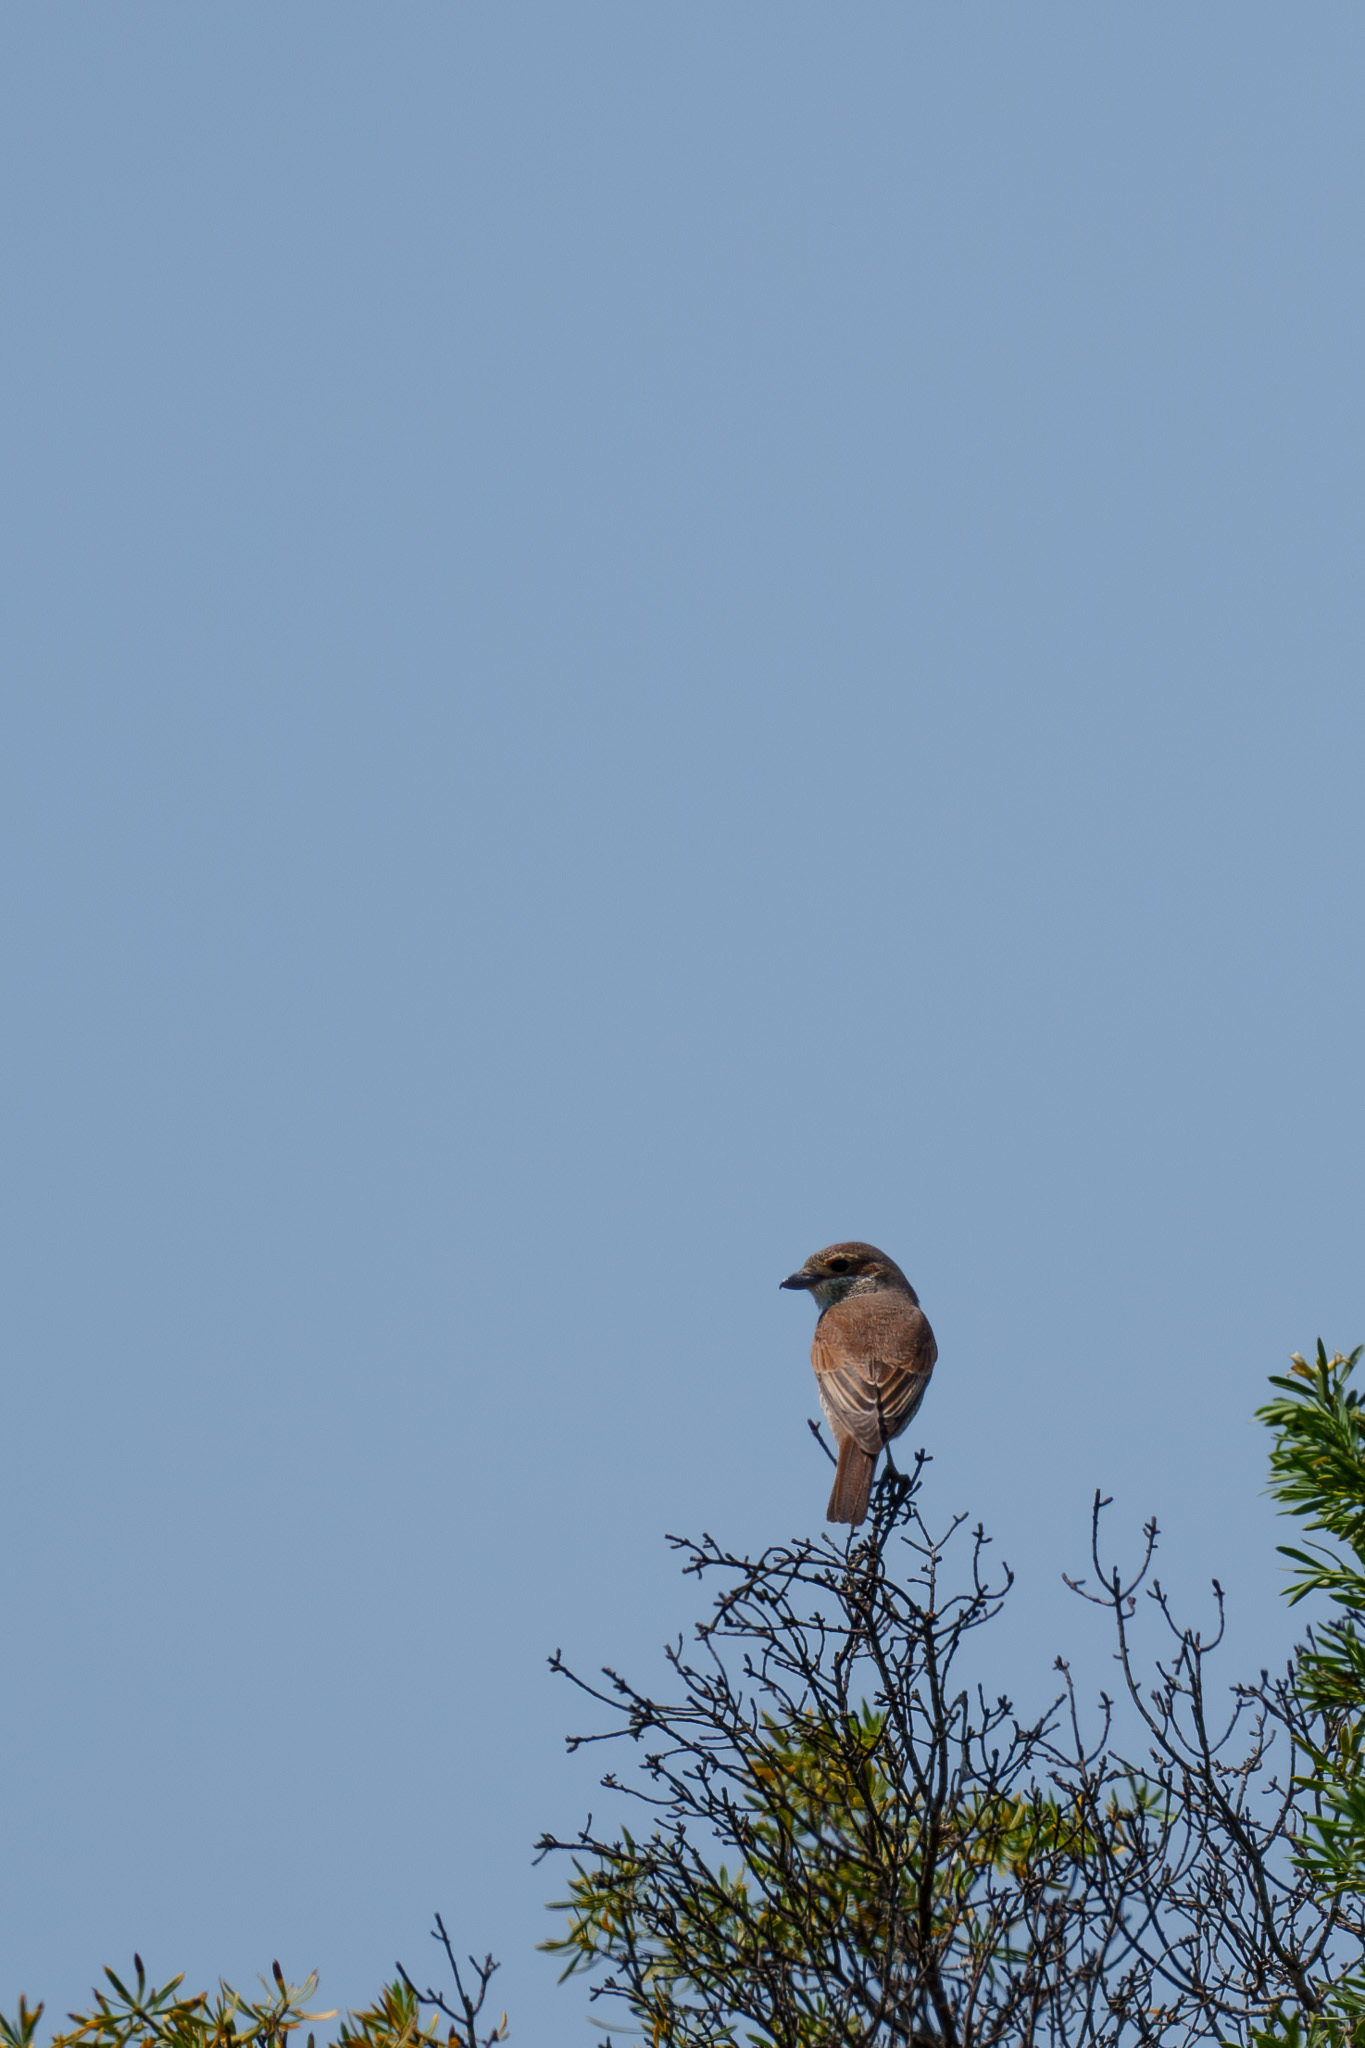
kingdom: Animalia
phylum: Chordata
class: Aves
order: Passeriformes
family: Laniidae
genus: Lanius
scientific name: Lanius collurio
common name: Red-backed shrike
